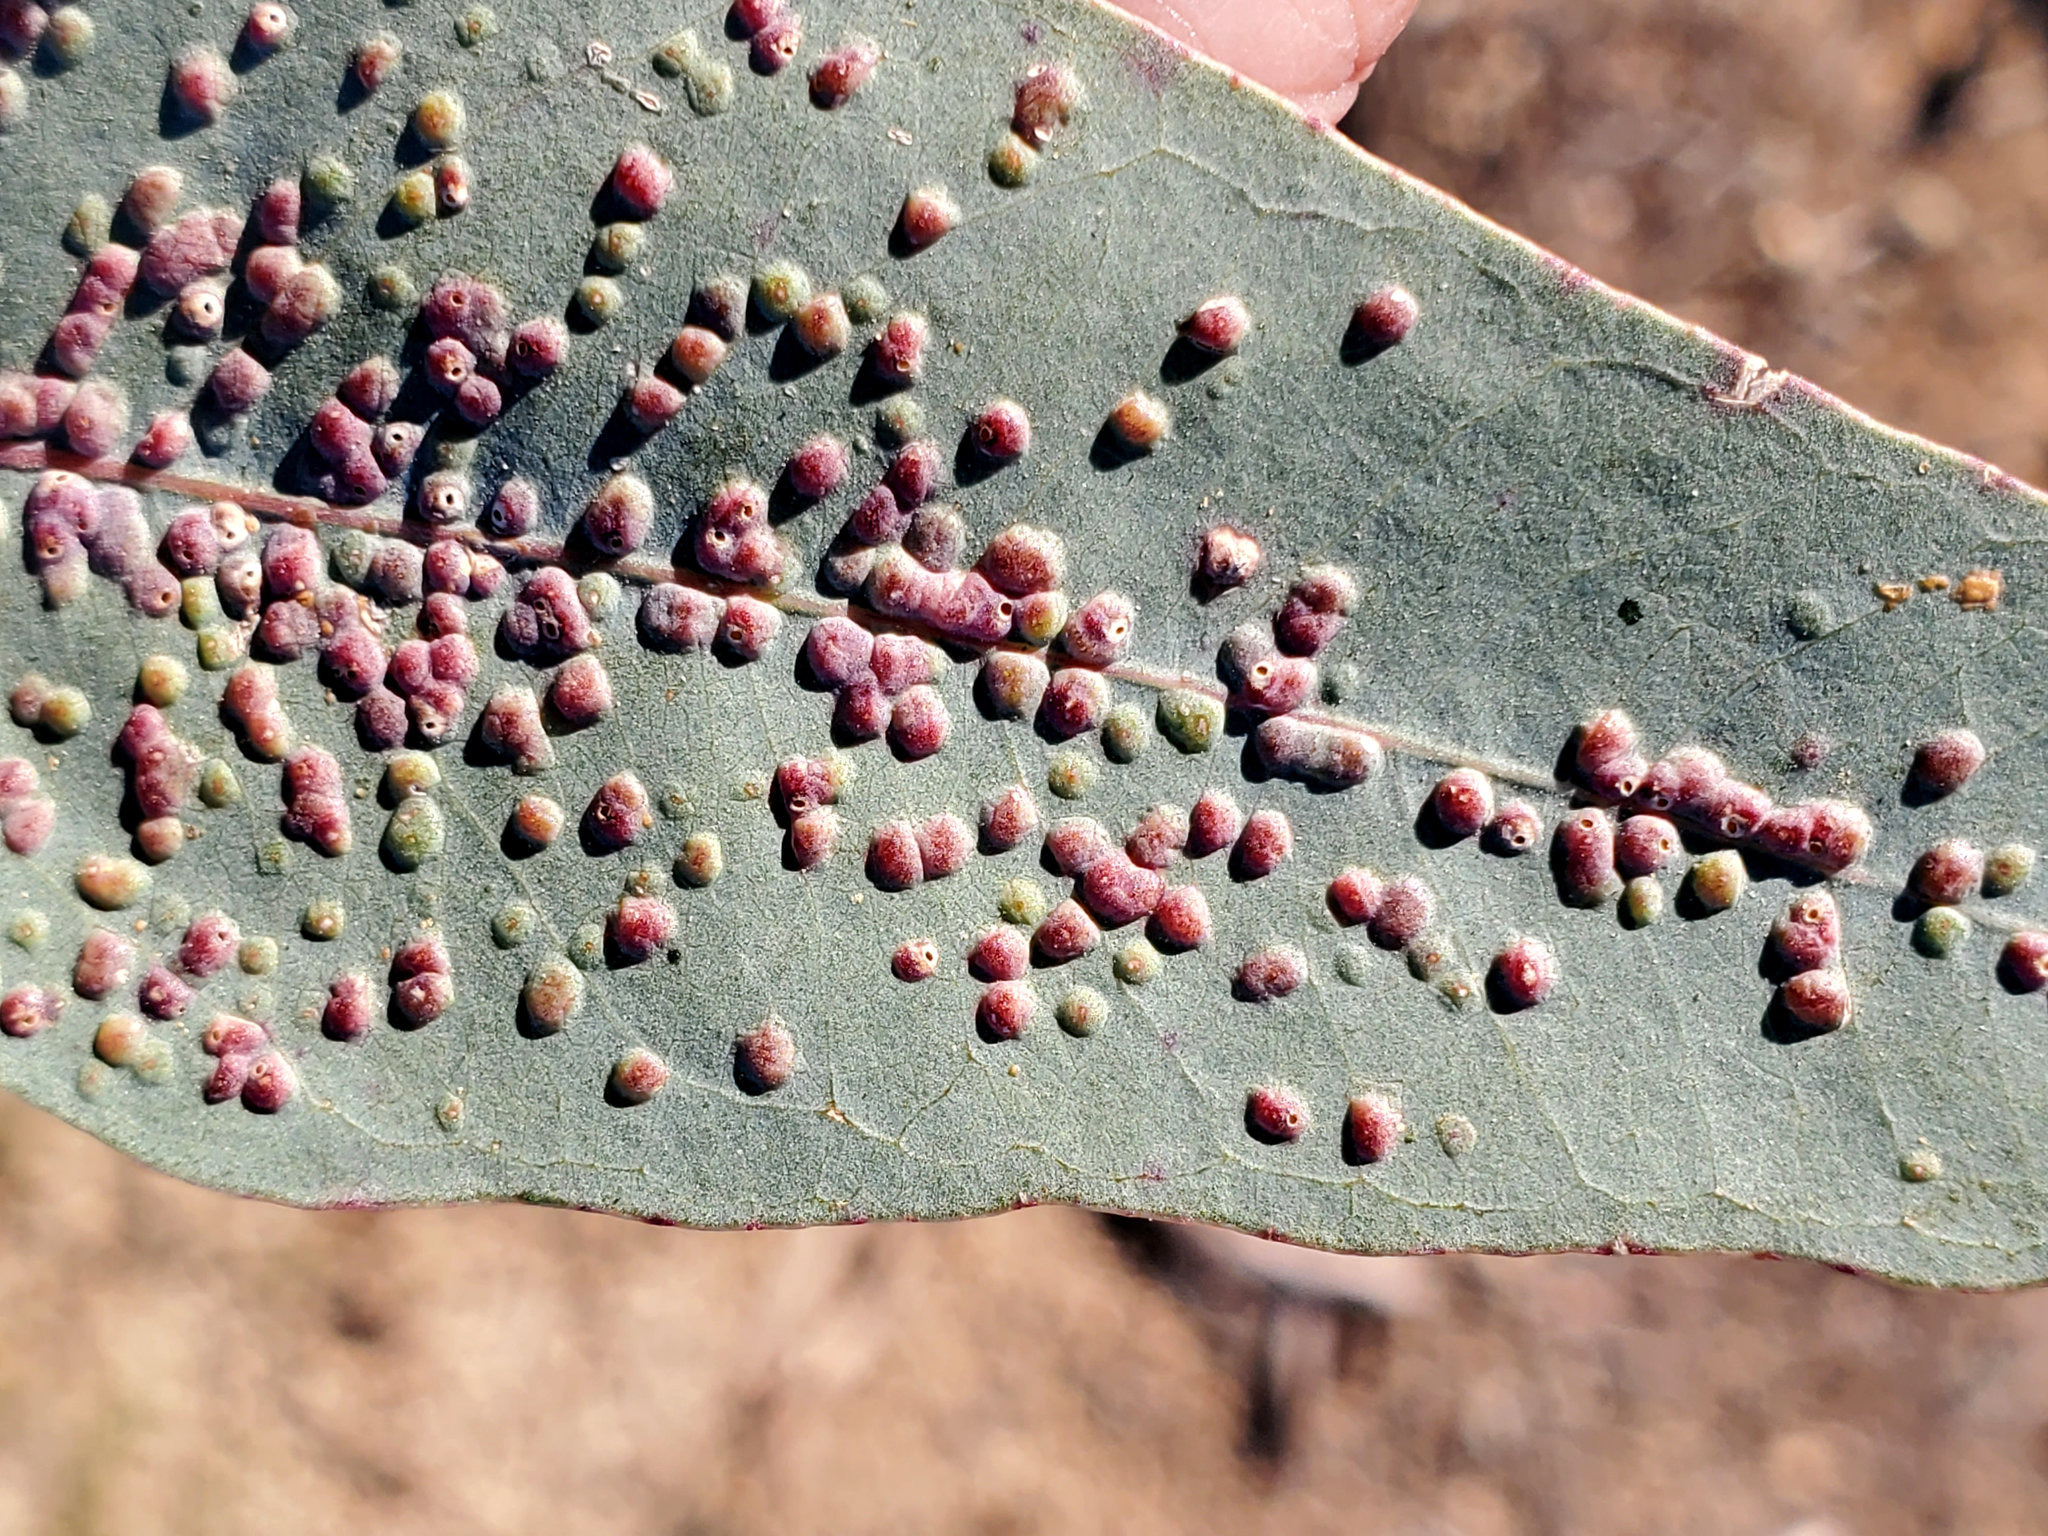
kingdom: Animalia
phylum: Arthropoda
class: Insecta
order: Hymenoptera
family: Eulophidae
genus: Ophelimus
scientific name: Ophelimus maskelli
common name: Gall wasp
